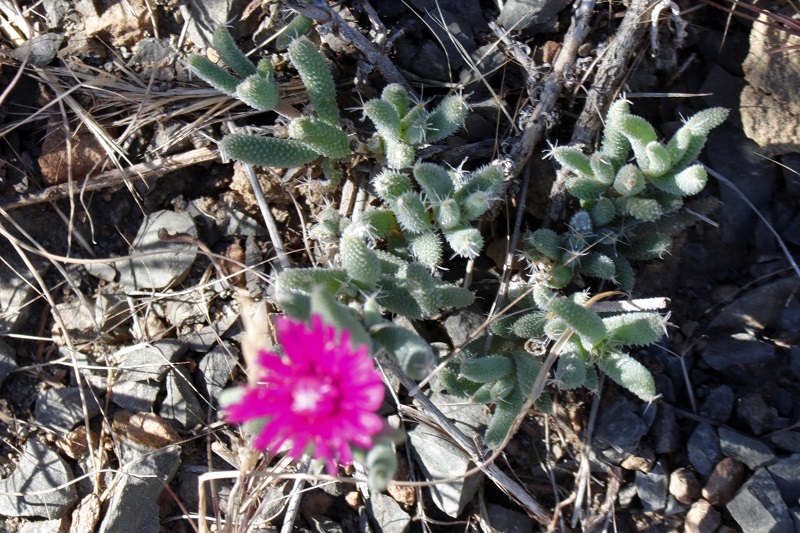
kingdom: Plantae
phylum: Tracheophyta
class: Magnoliopsida
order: Caryophyllales
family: Aizoaceae
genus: Trichodiadema
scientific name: Trichodiadema setuliferum
